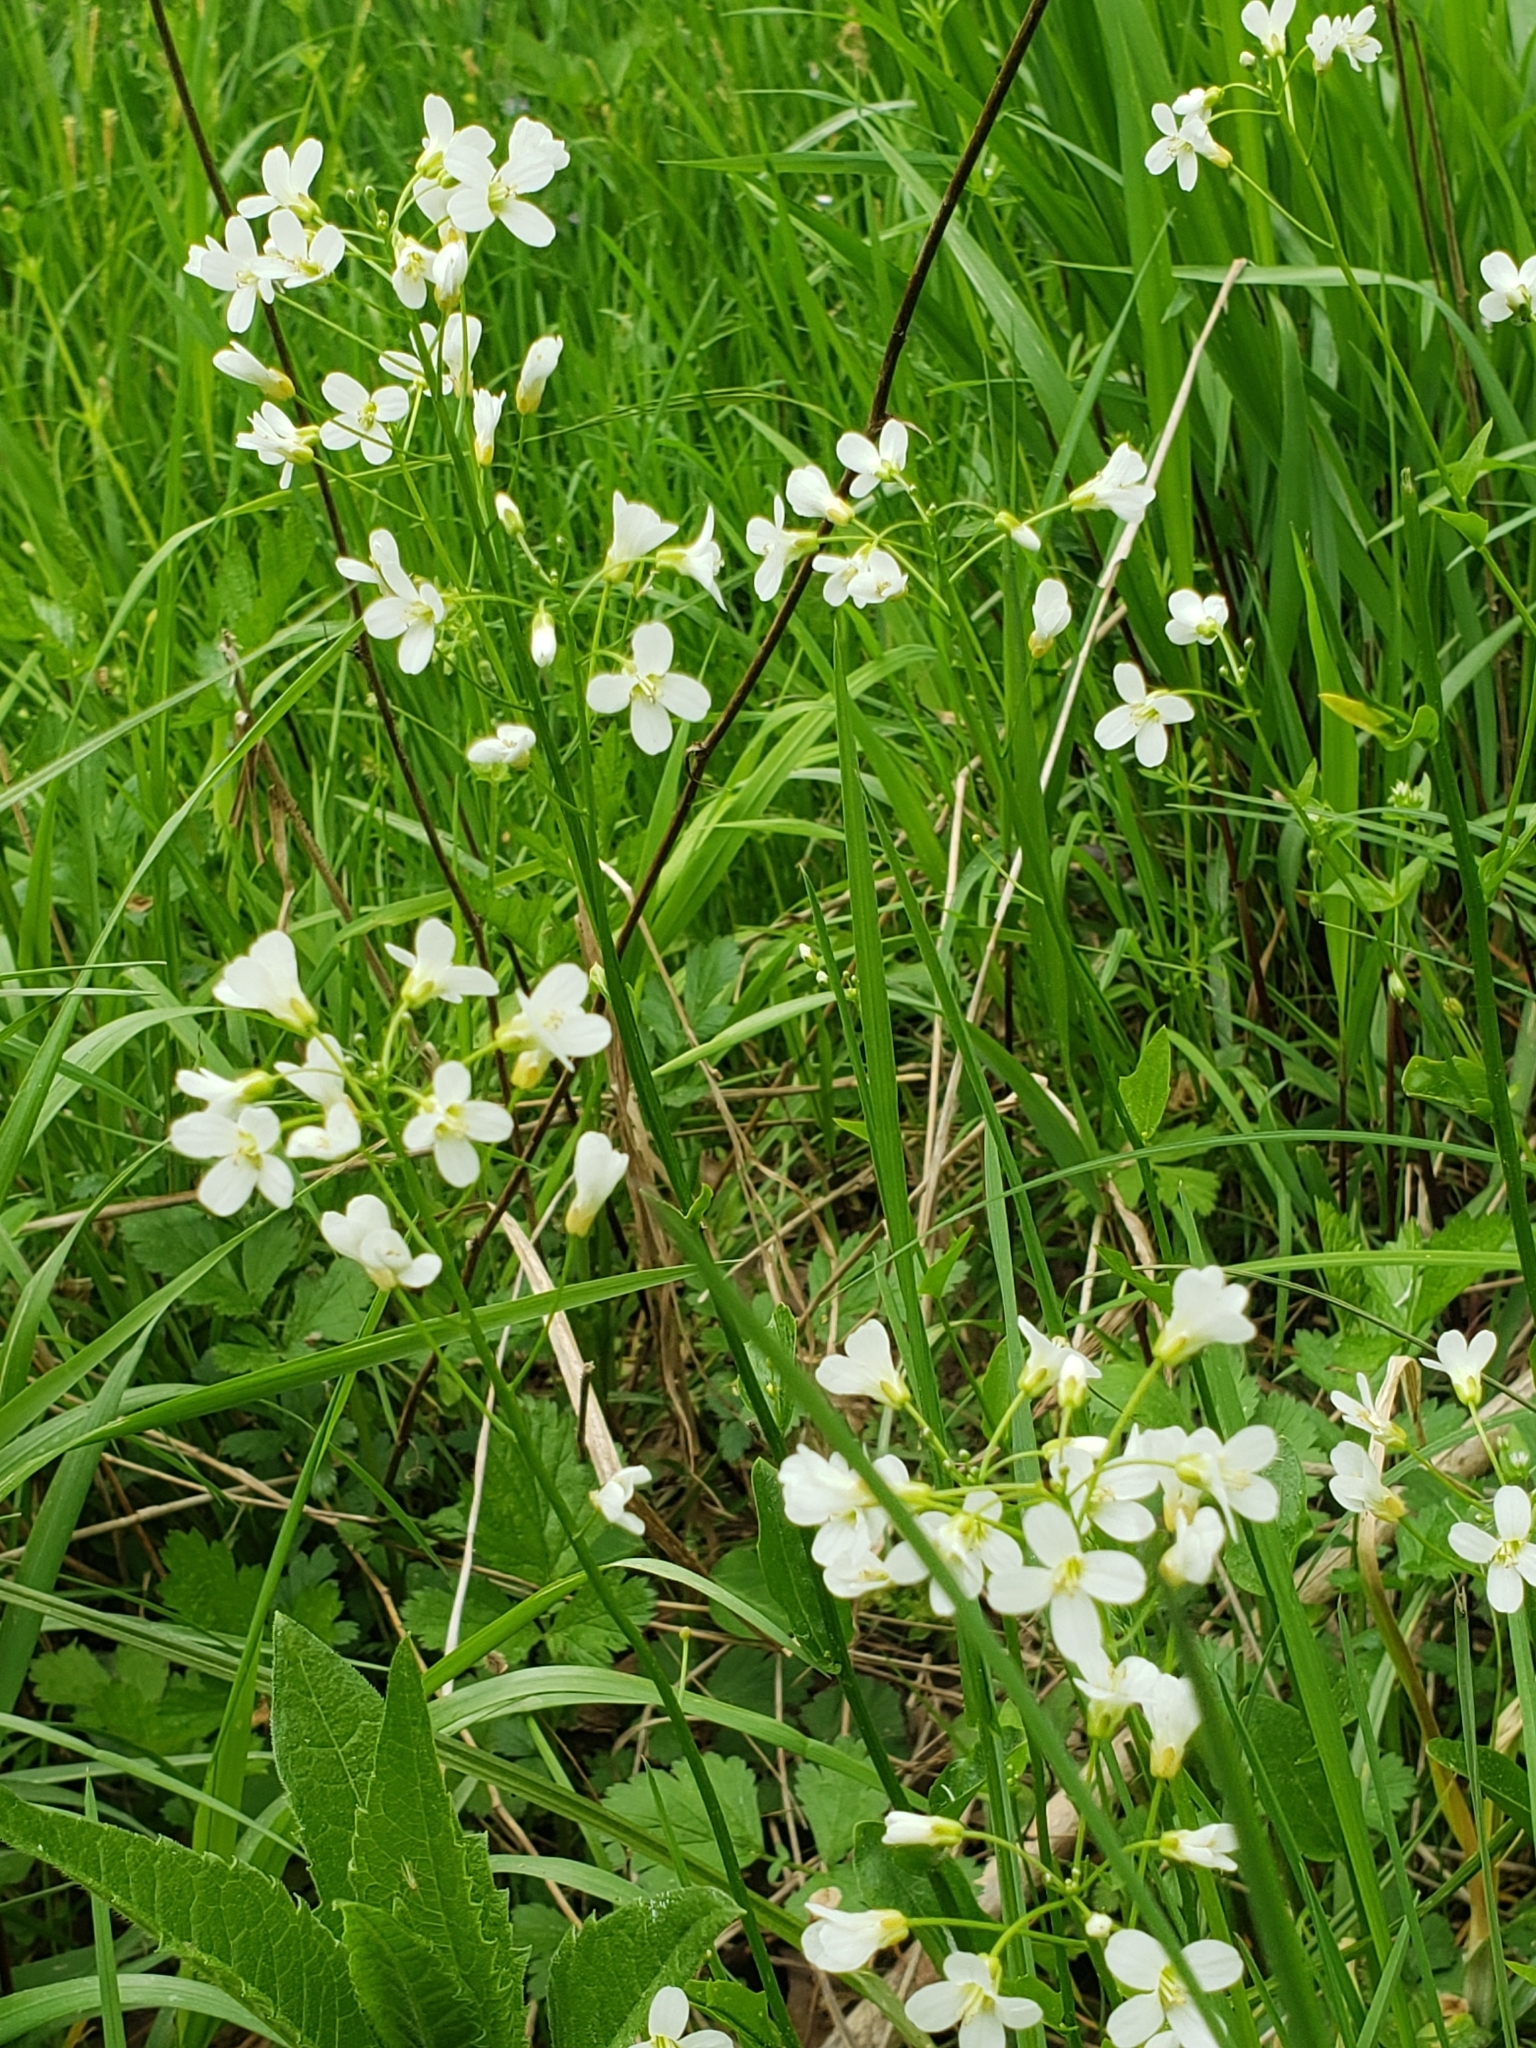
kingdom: Plantae
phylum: Tracheophyta
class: Magnoliopsida
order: Brassicales
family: Brassicaceae
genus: Cardamine
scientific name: Cardamine bulbosa
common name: Spring cress
